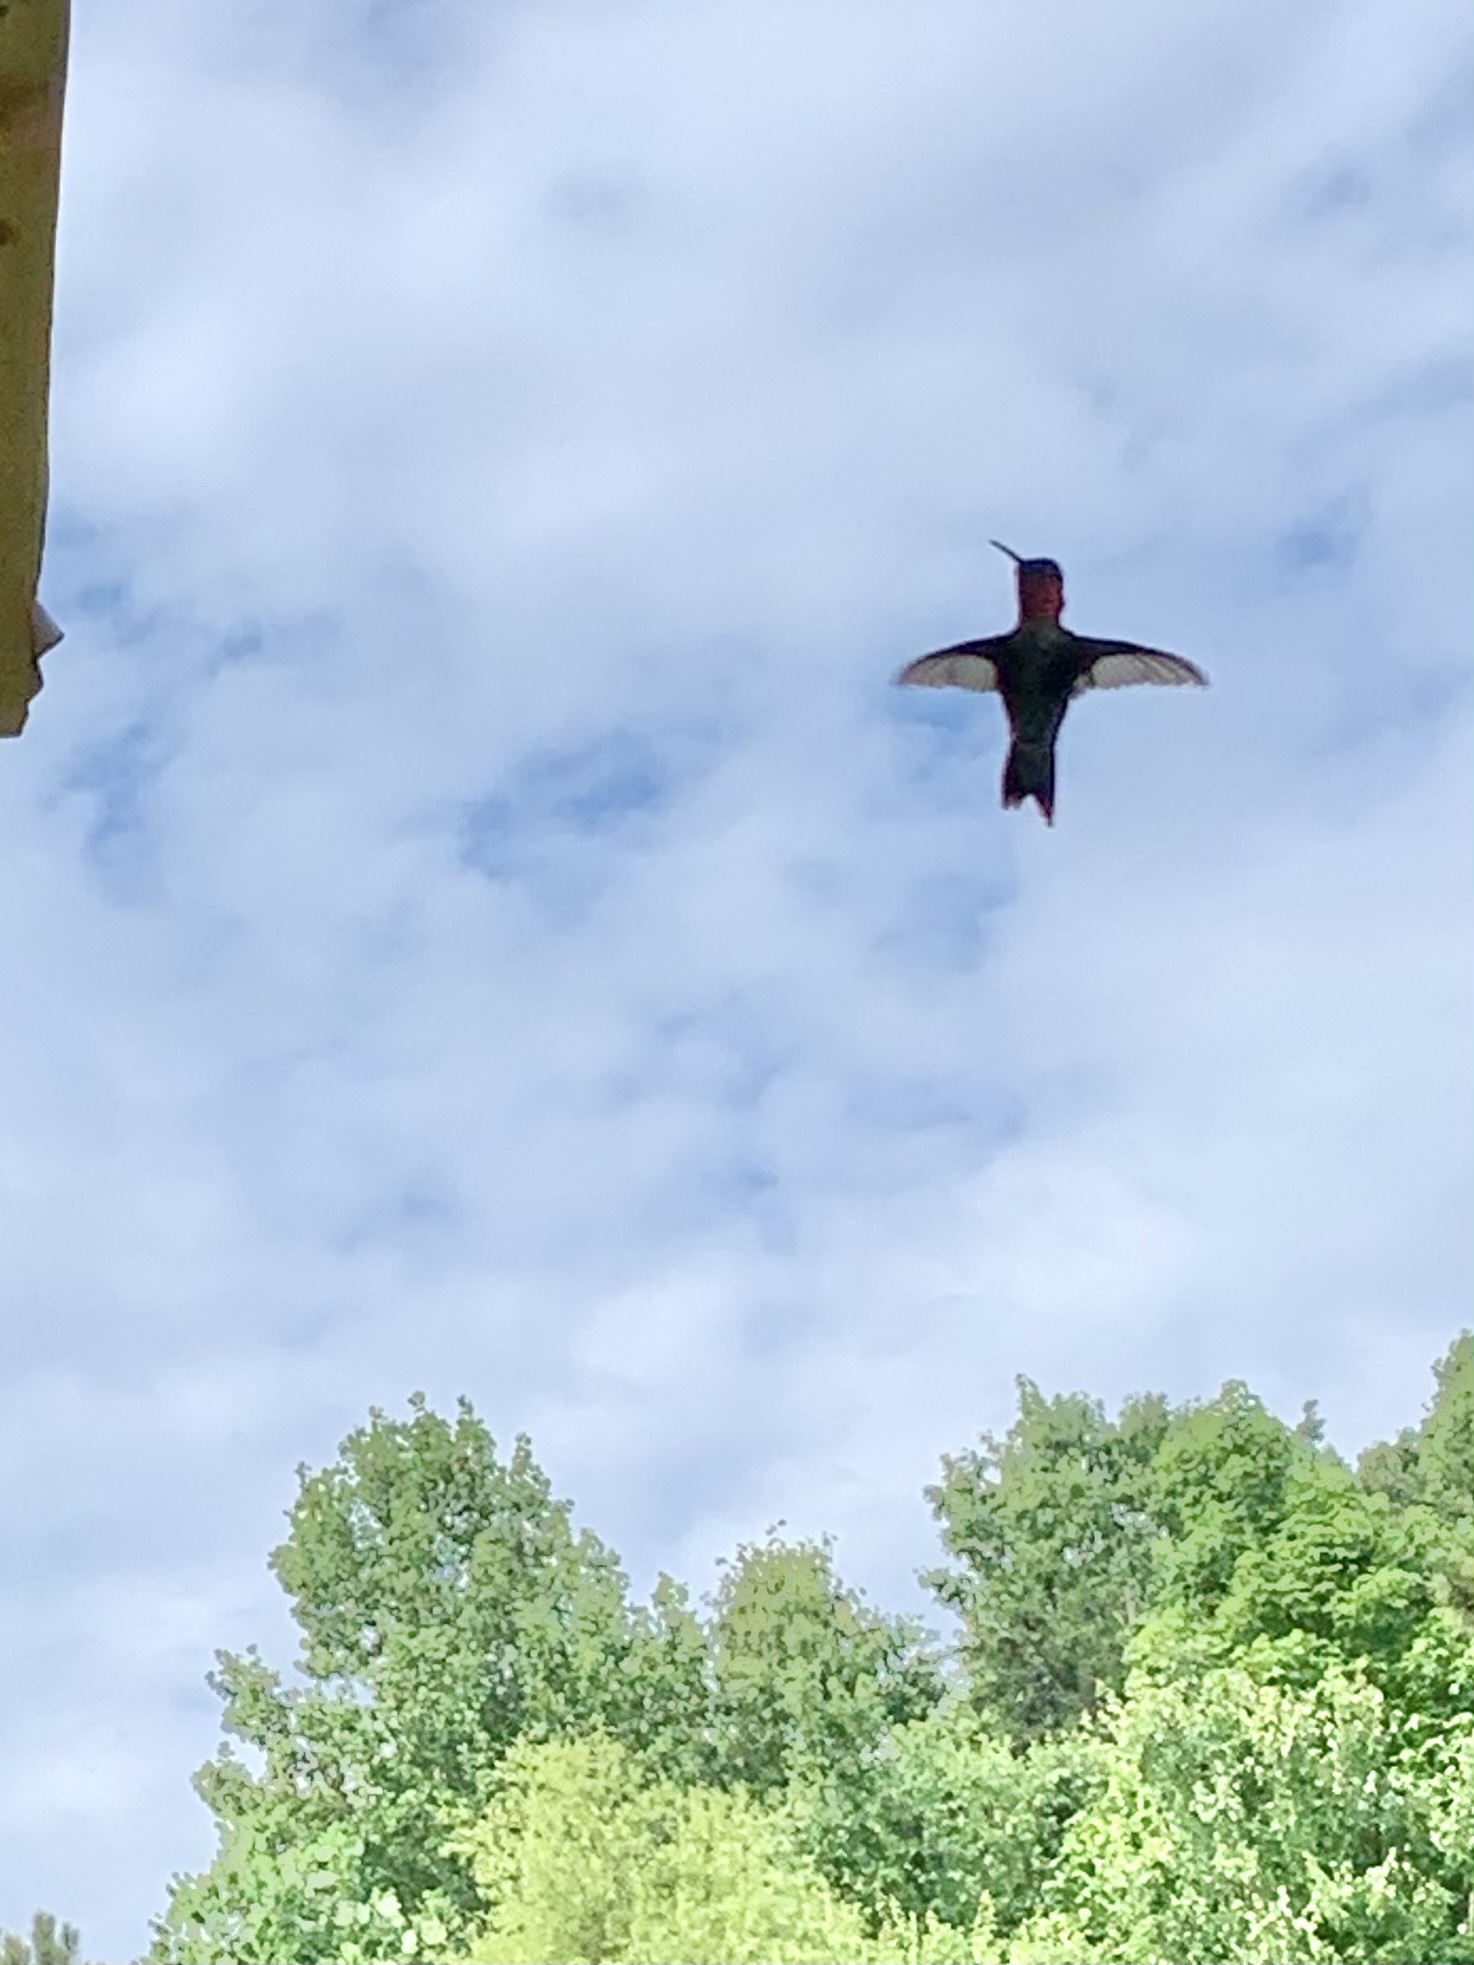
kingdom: Animalia
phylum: Chordata
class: Aves
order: Apodiformes
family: Trochilidae
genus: Archilochus
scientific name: Archilochus colubris
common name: Ruby-throated hummingbird
